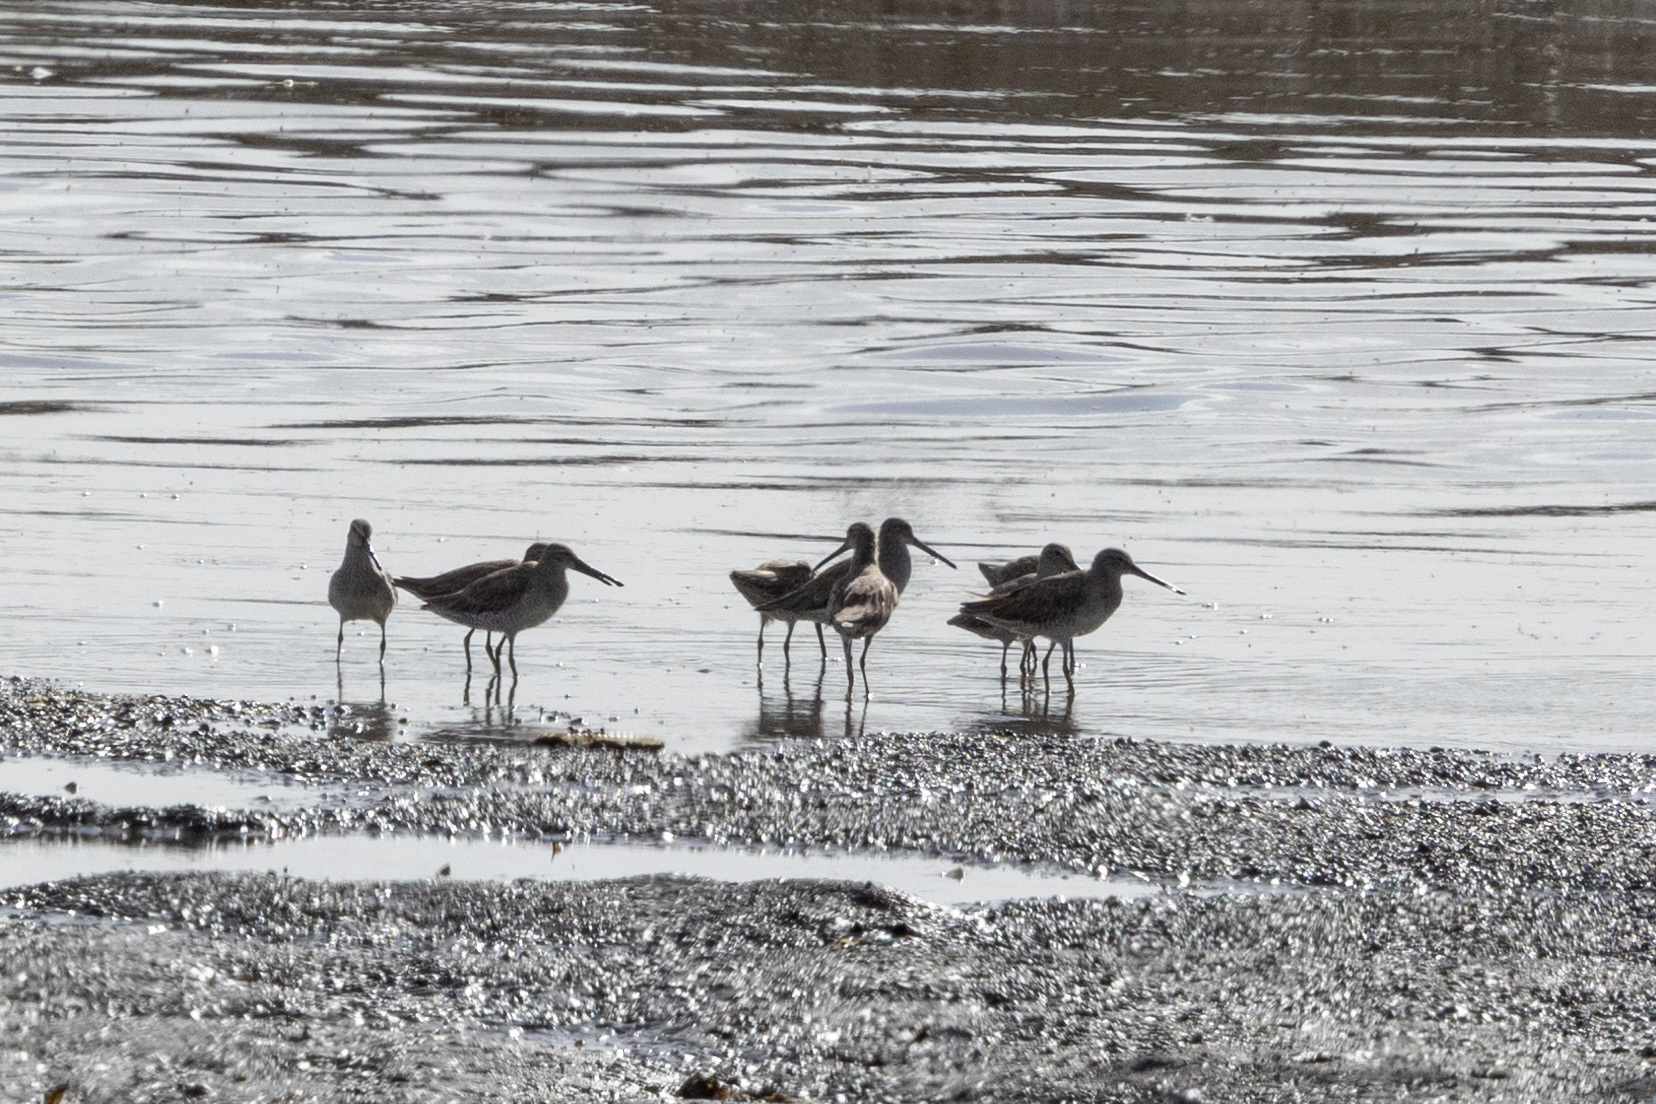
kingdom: Animalia
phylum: Chordata
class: Aves
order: Charadriiformes
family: Scolopacidae
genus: Limnodromus
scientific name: Limnodromus griseus
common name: Short-billed dowitcher
